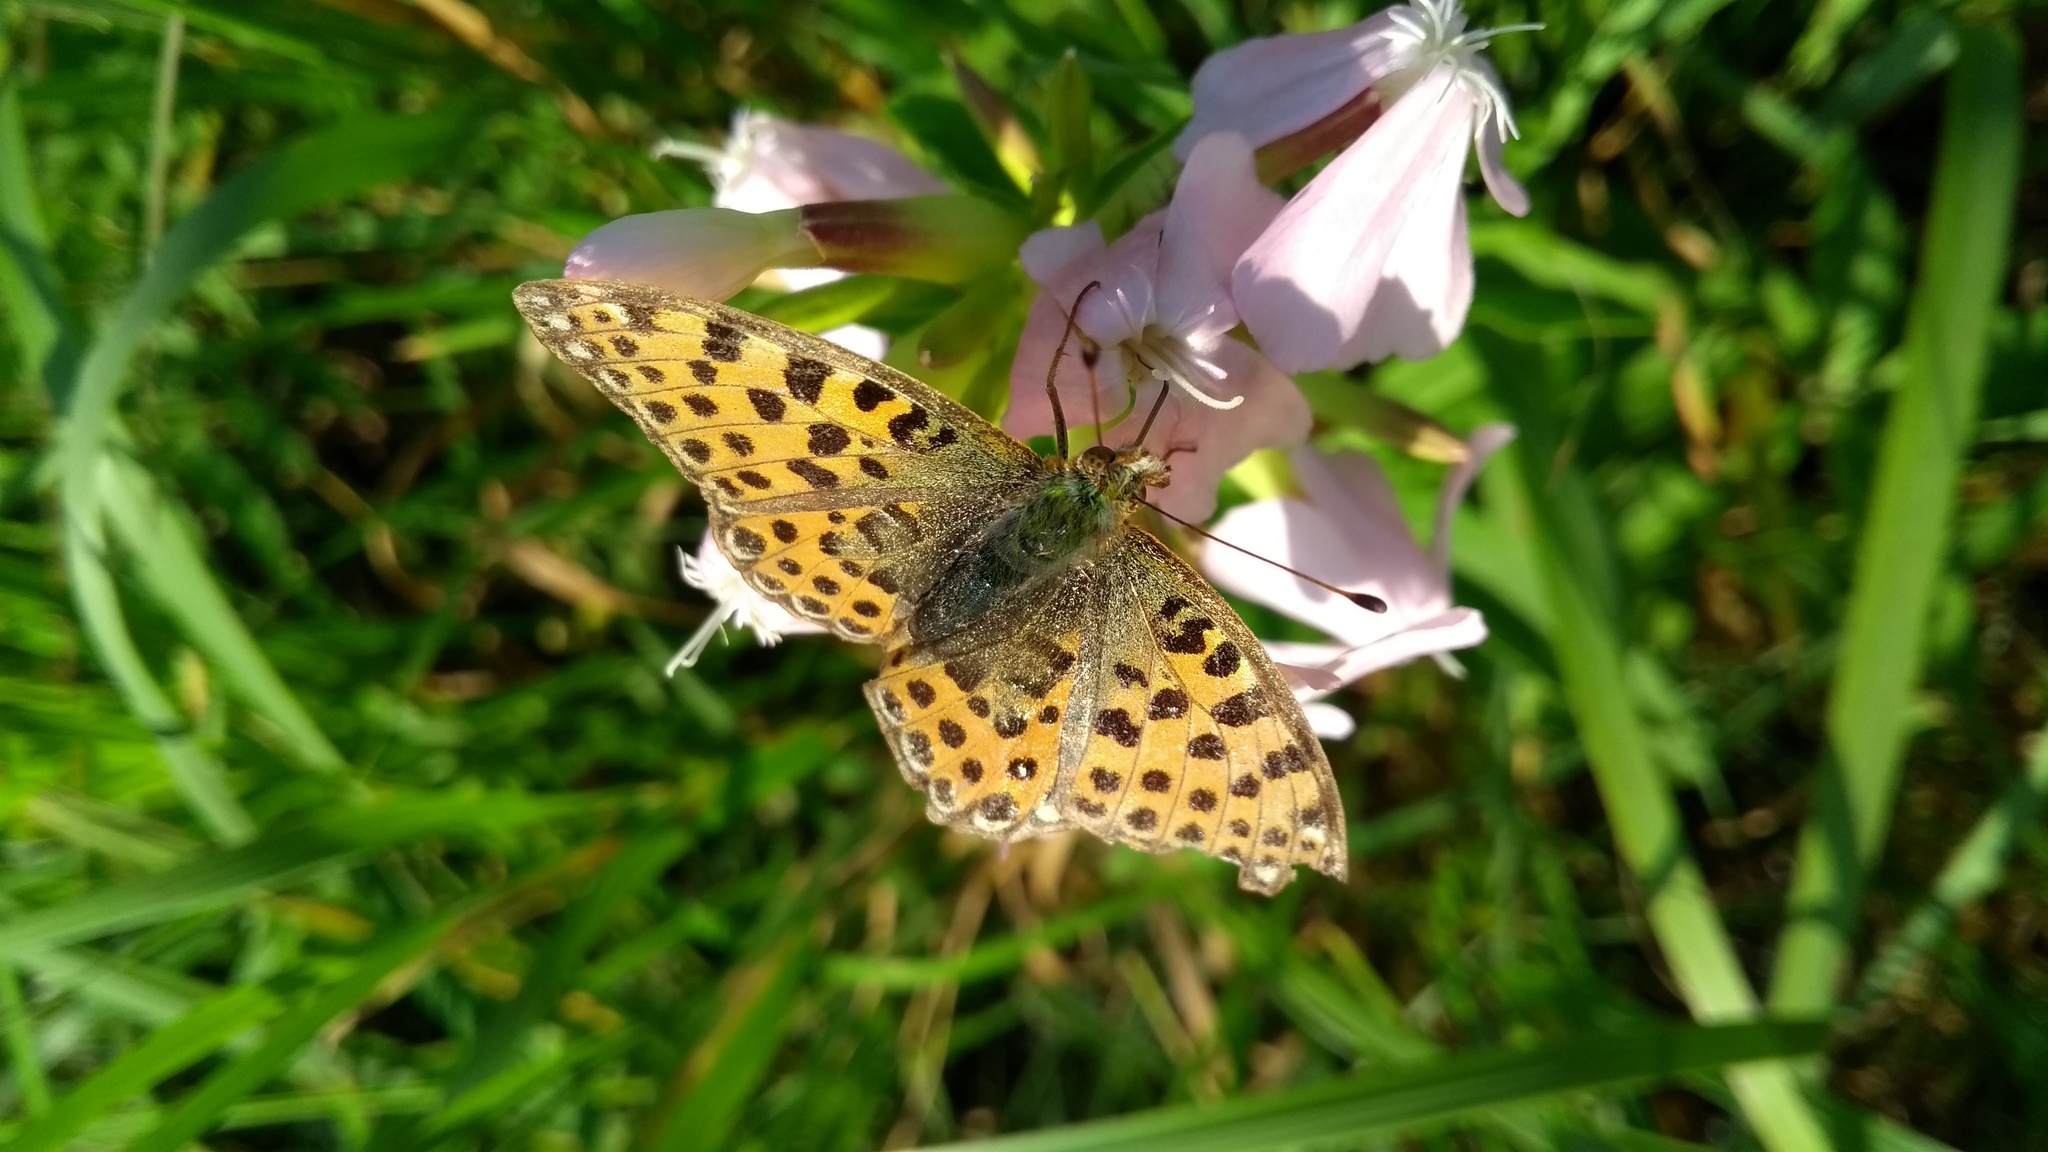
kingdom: Animalia
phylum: Arthropoda
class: Insecta
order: Lepidoptera
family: Nymphalidae
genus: Issoria
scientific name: Issoria lathonia
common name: Queen of spain fritillary
